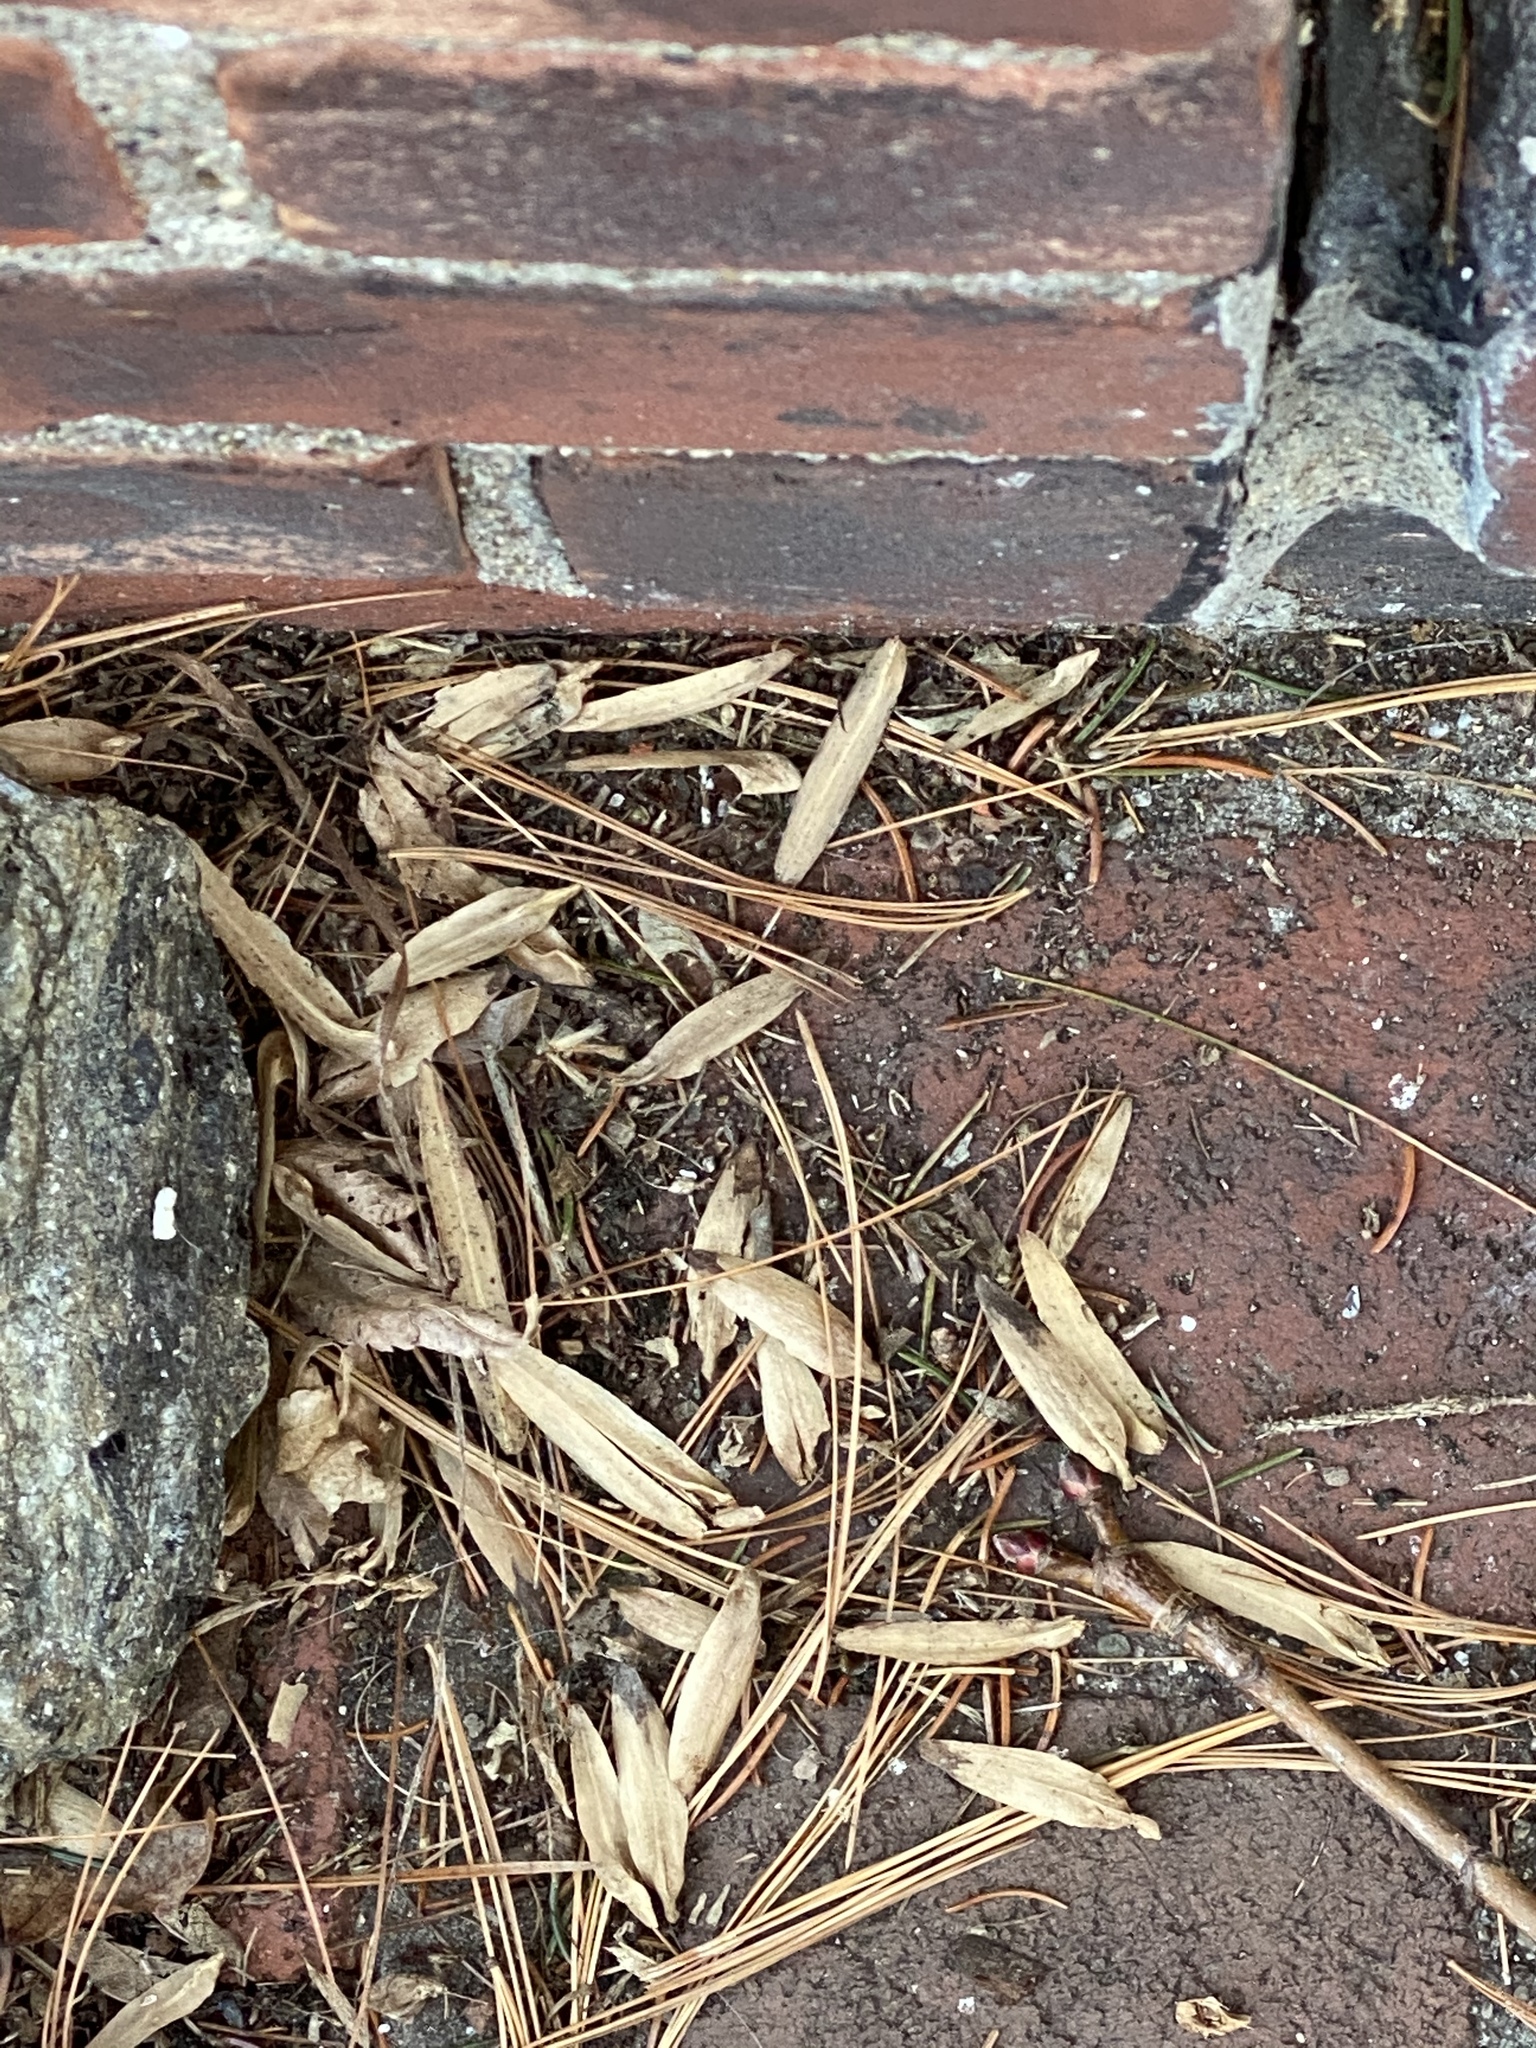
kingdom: Plantae
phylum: Tracheophyta
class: Magnoliopsida
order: Magnoliales
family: Magnoliaceae
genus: Liriodendron
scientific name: Liriodendron tulipifera
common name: Tulip tree
